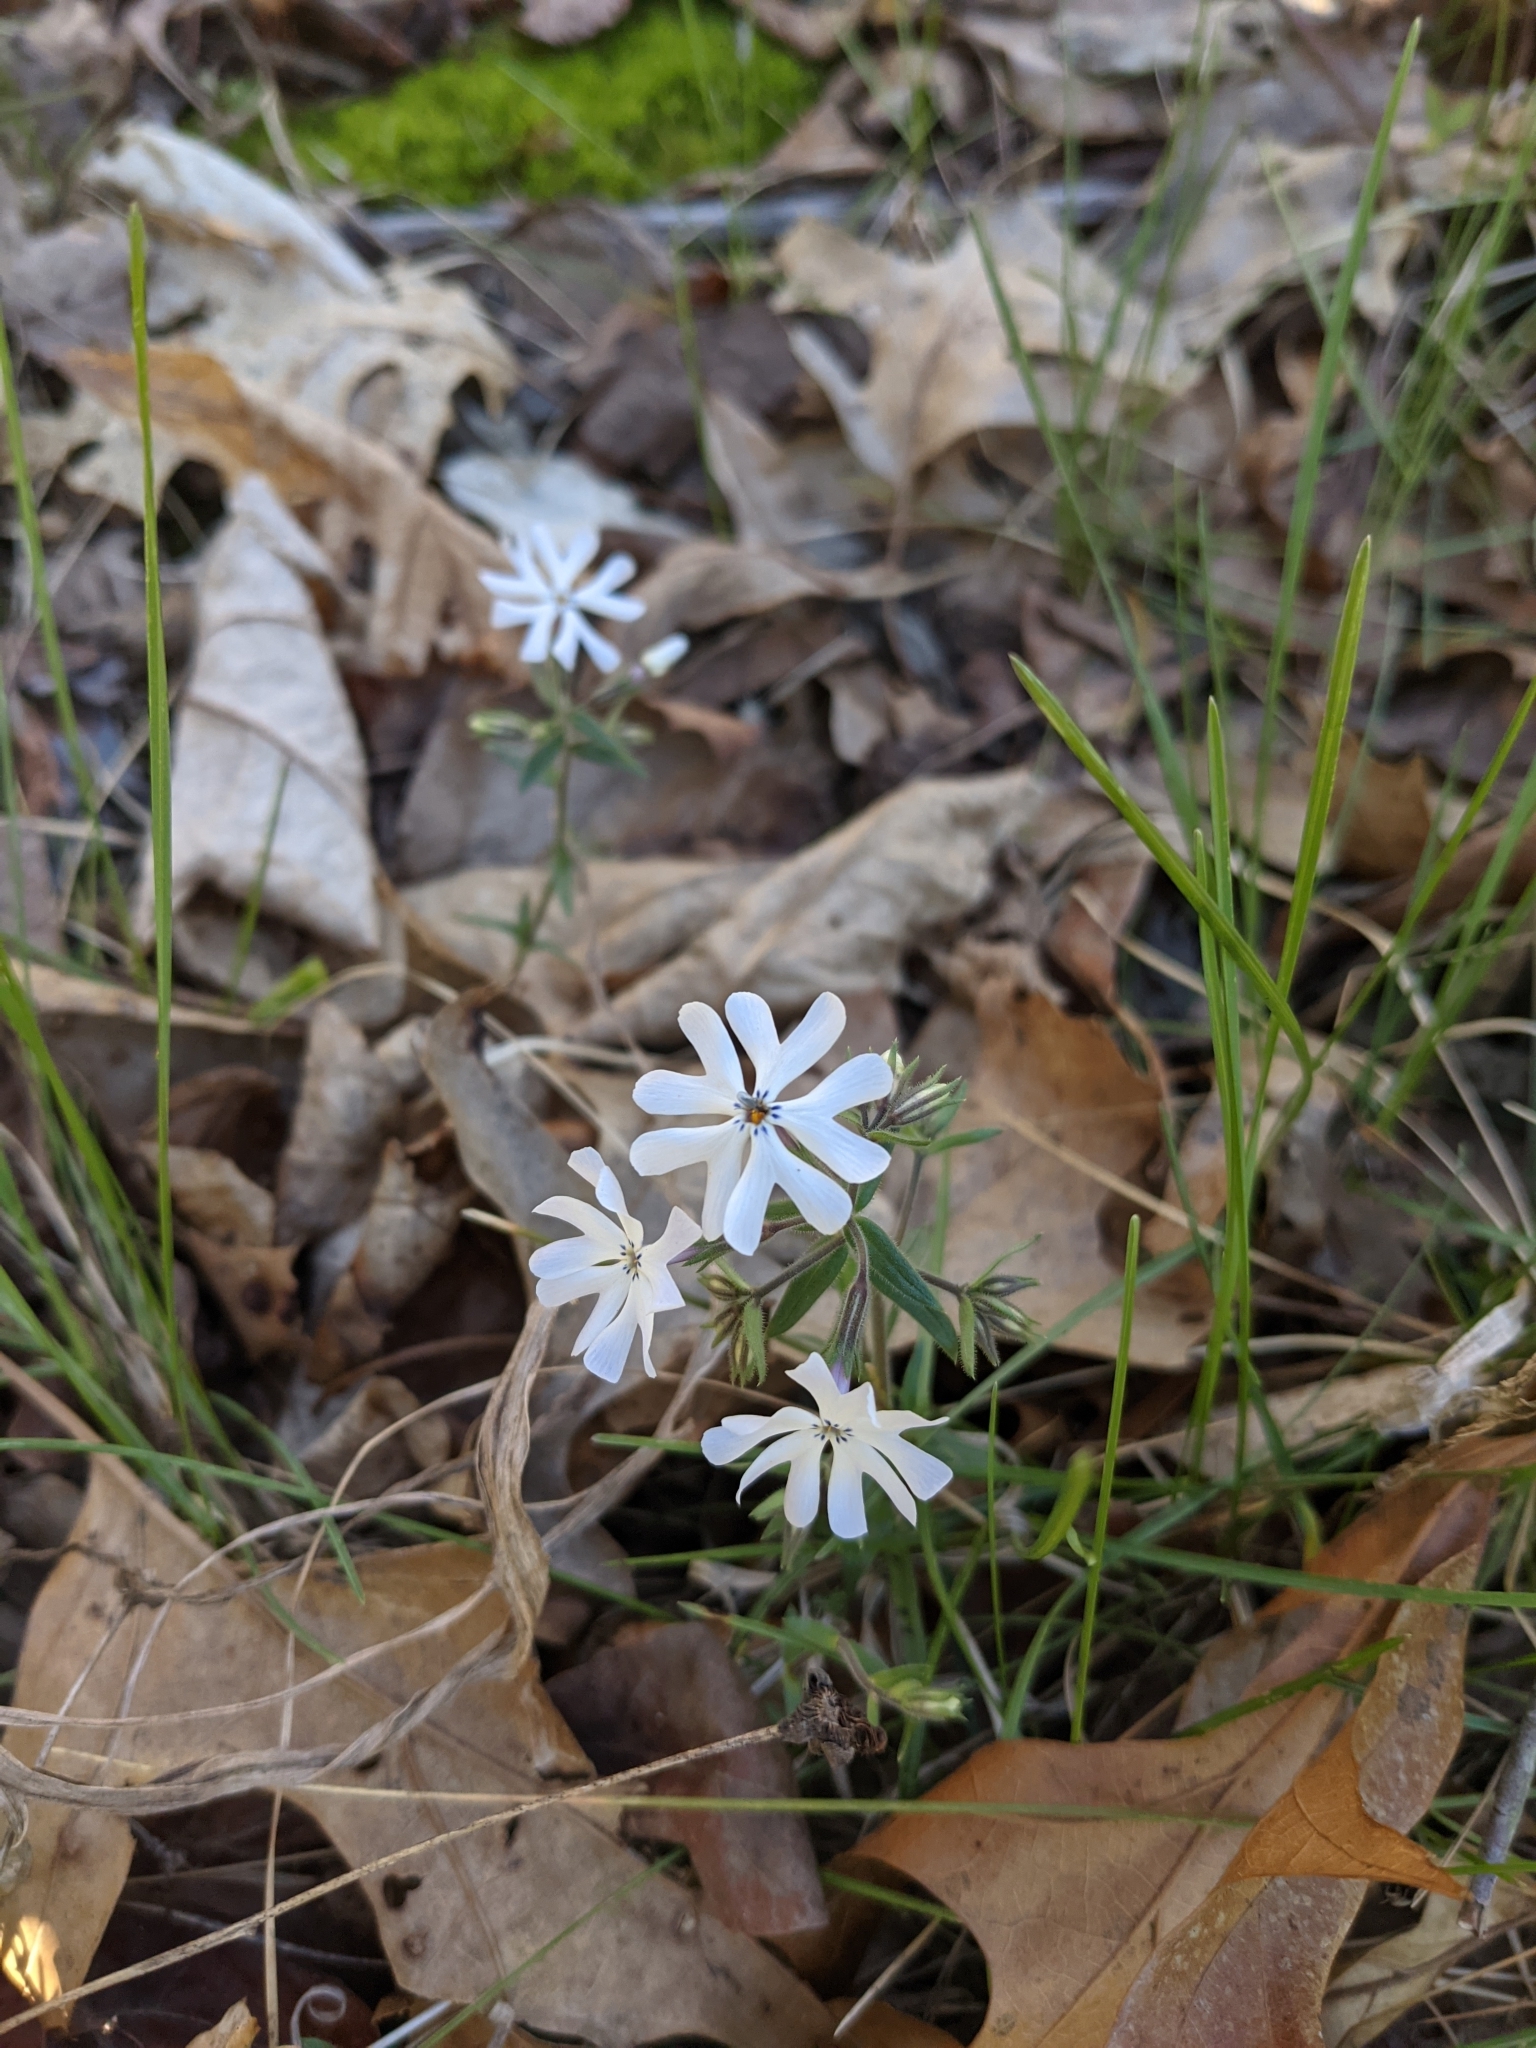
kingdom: Plantae
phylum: Tracheophyta
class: Magnoliopsida
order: Ericales
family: Polemoniaceae
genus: Phlox
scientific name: Phlox bifida
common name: Sand phlox
